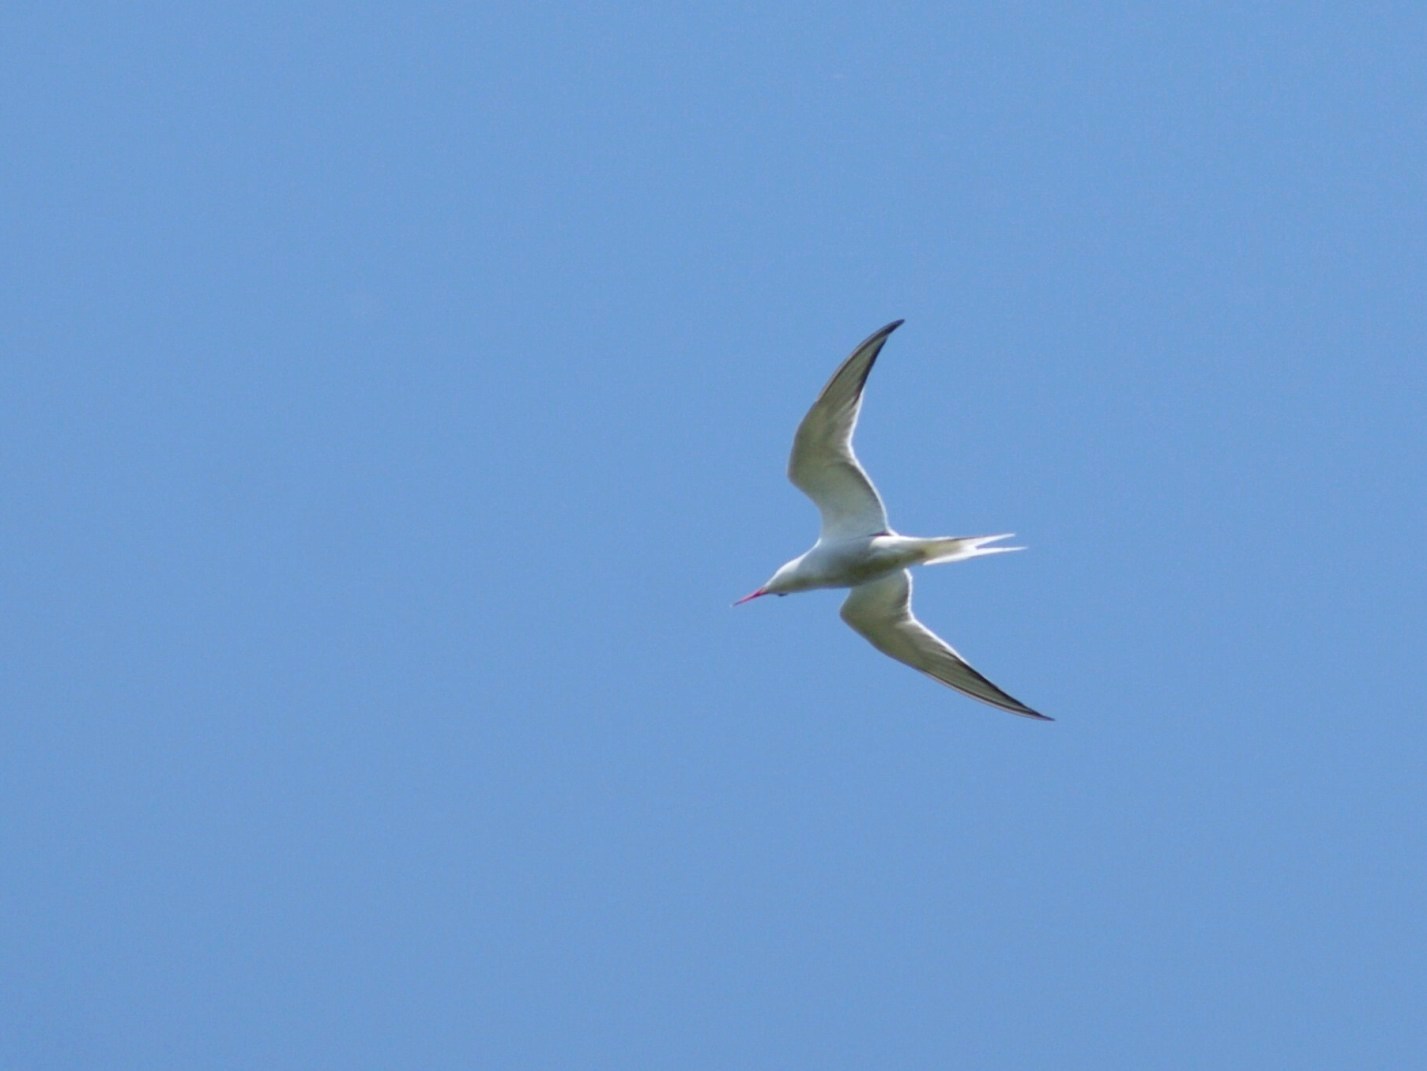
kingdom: Animalia
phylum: Chordata
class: Aves
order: Charadriiformes
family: Laridae
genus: Sterna
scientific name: Sterna hirundo
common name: Common tern
